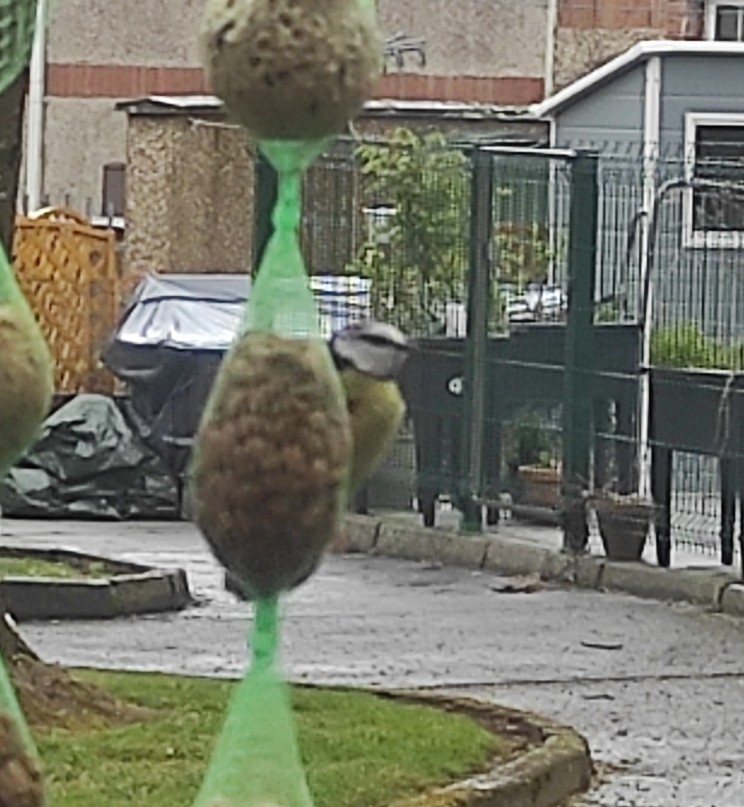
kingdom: Animalia
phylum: Chordata
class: Aves
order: Passeriformes
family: Paridae
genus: Cyanistes
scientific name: Cyanistes caeruleus
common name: Eurasian blue tit
